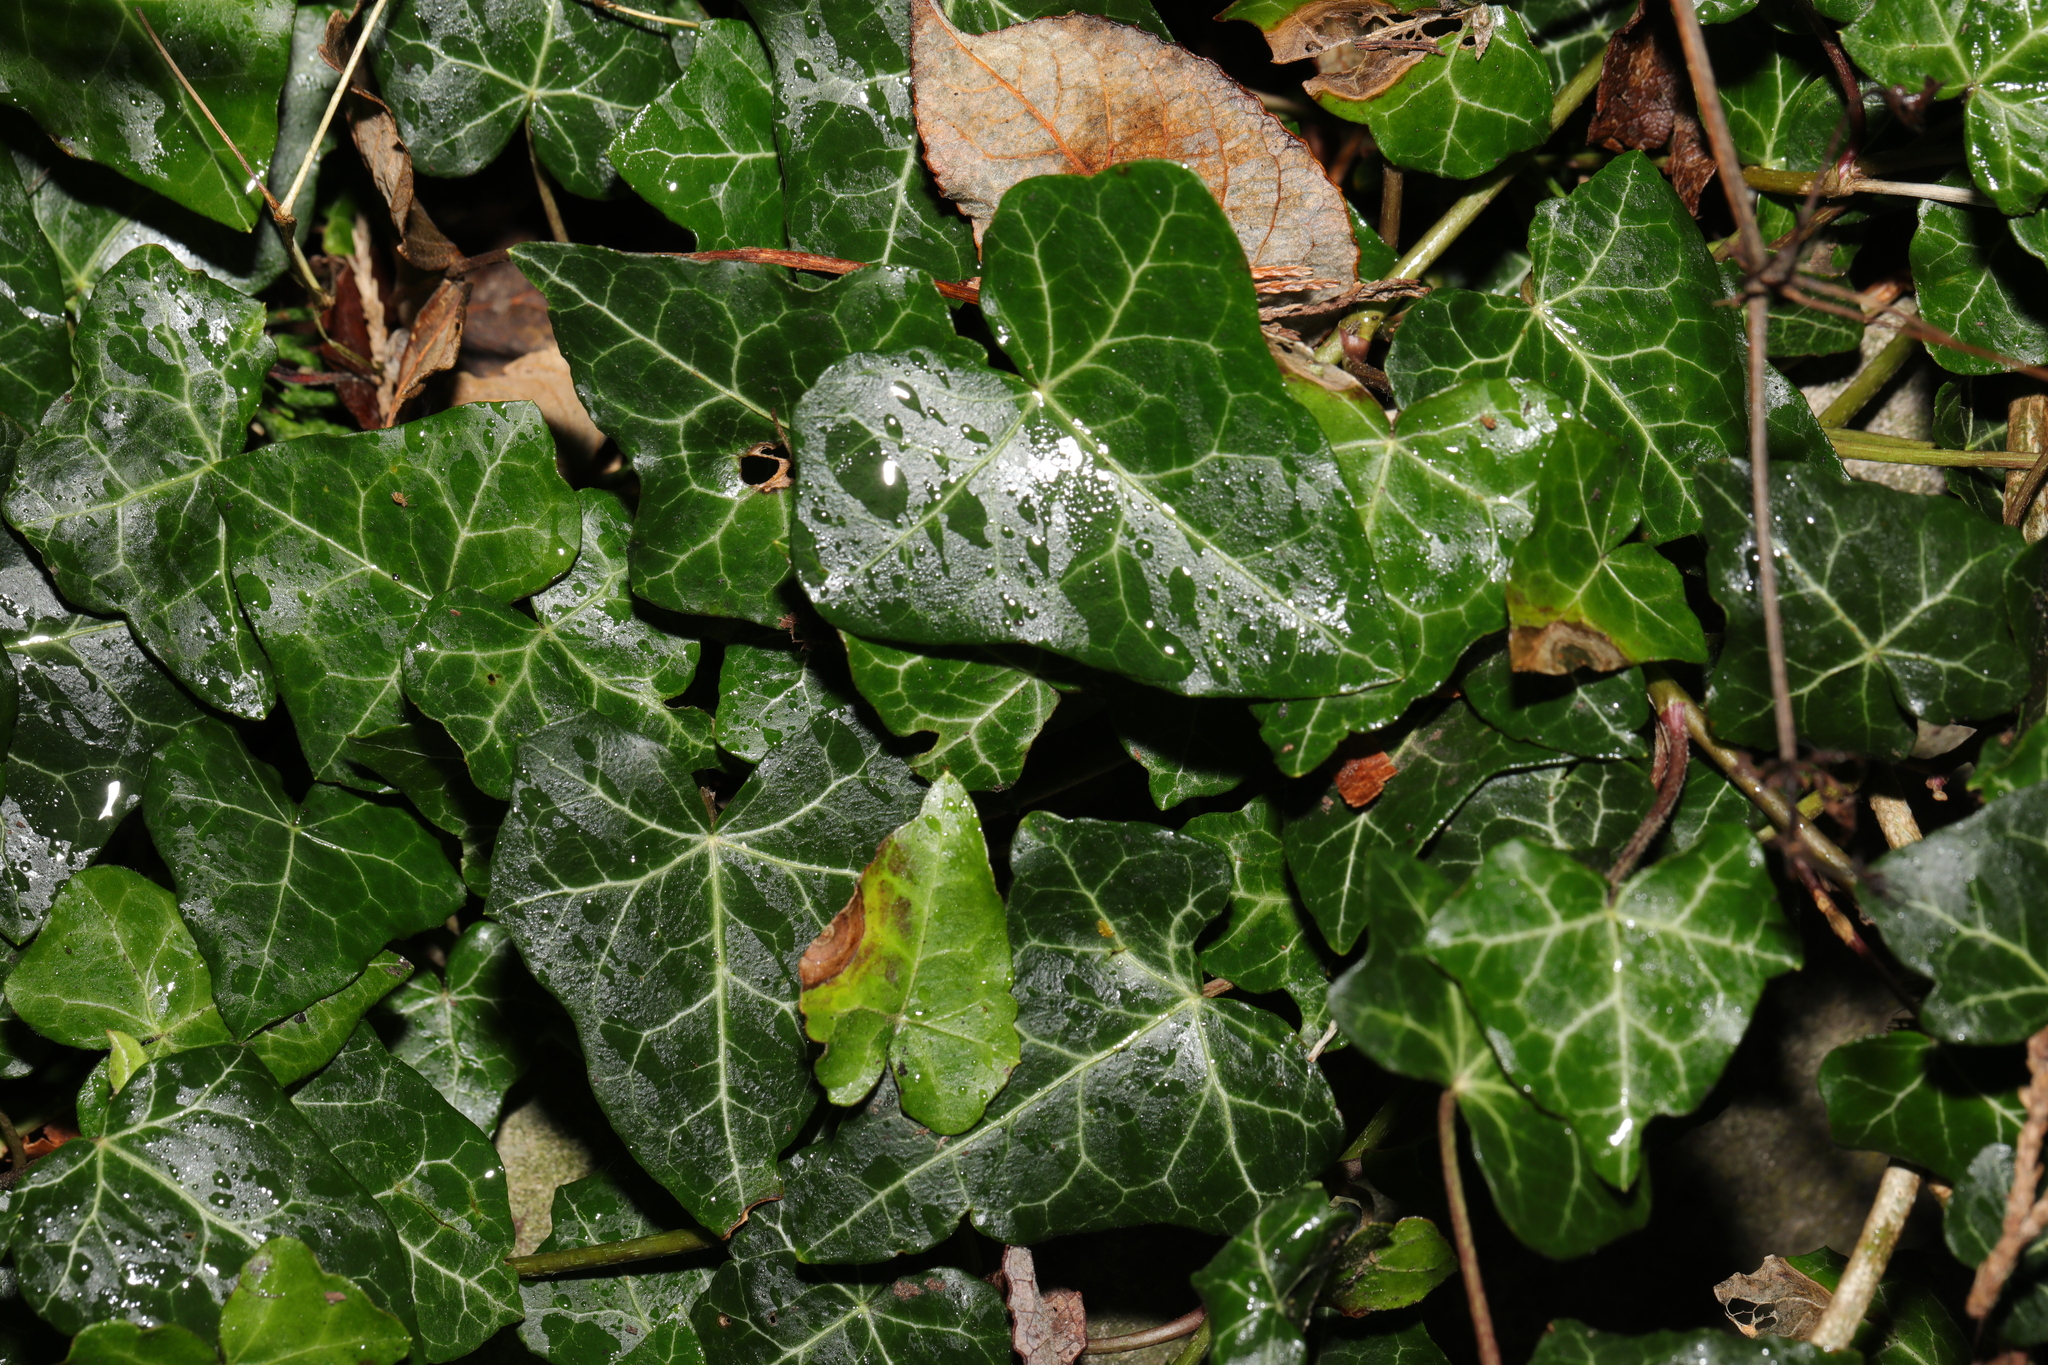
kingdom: Plantae
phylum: Tracheophyta
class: Magnoliopsida
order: Apiales
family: Araliaceae
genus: Hedera
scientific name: Hedera helix
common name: Ivy
